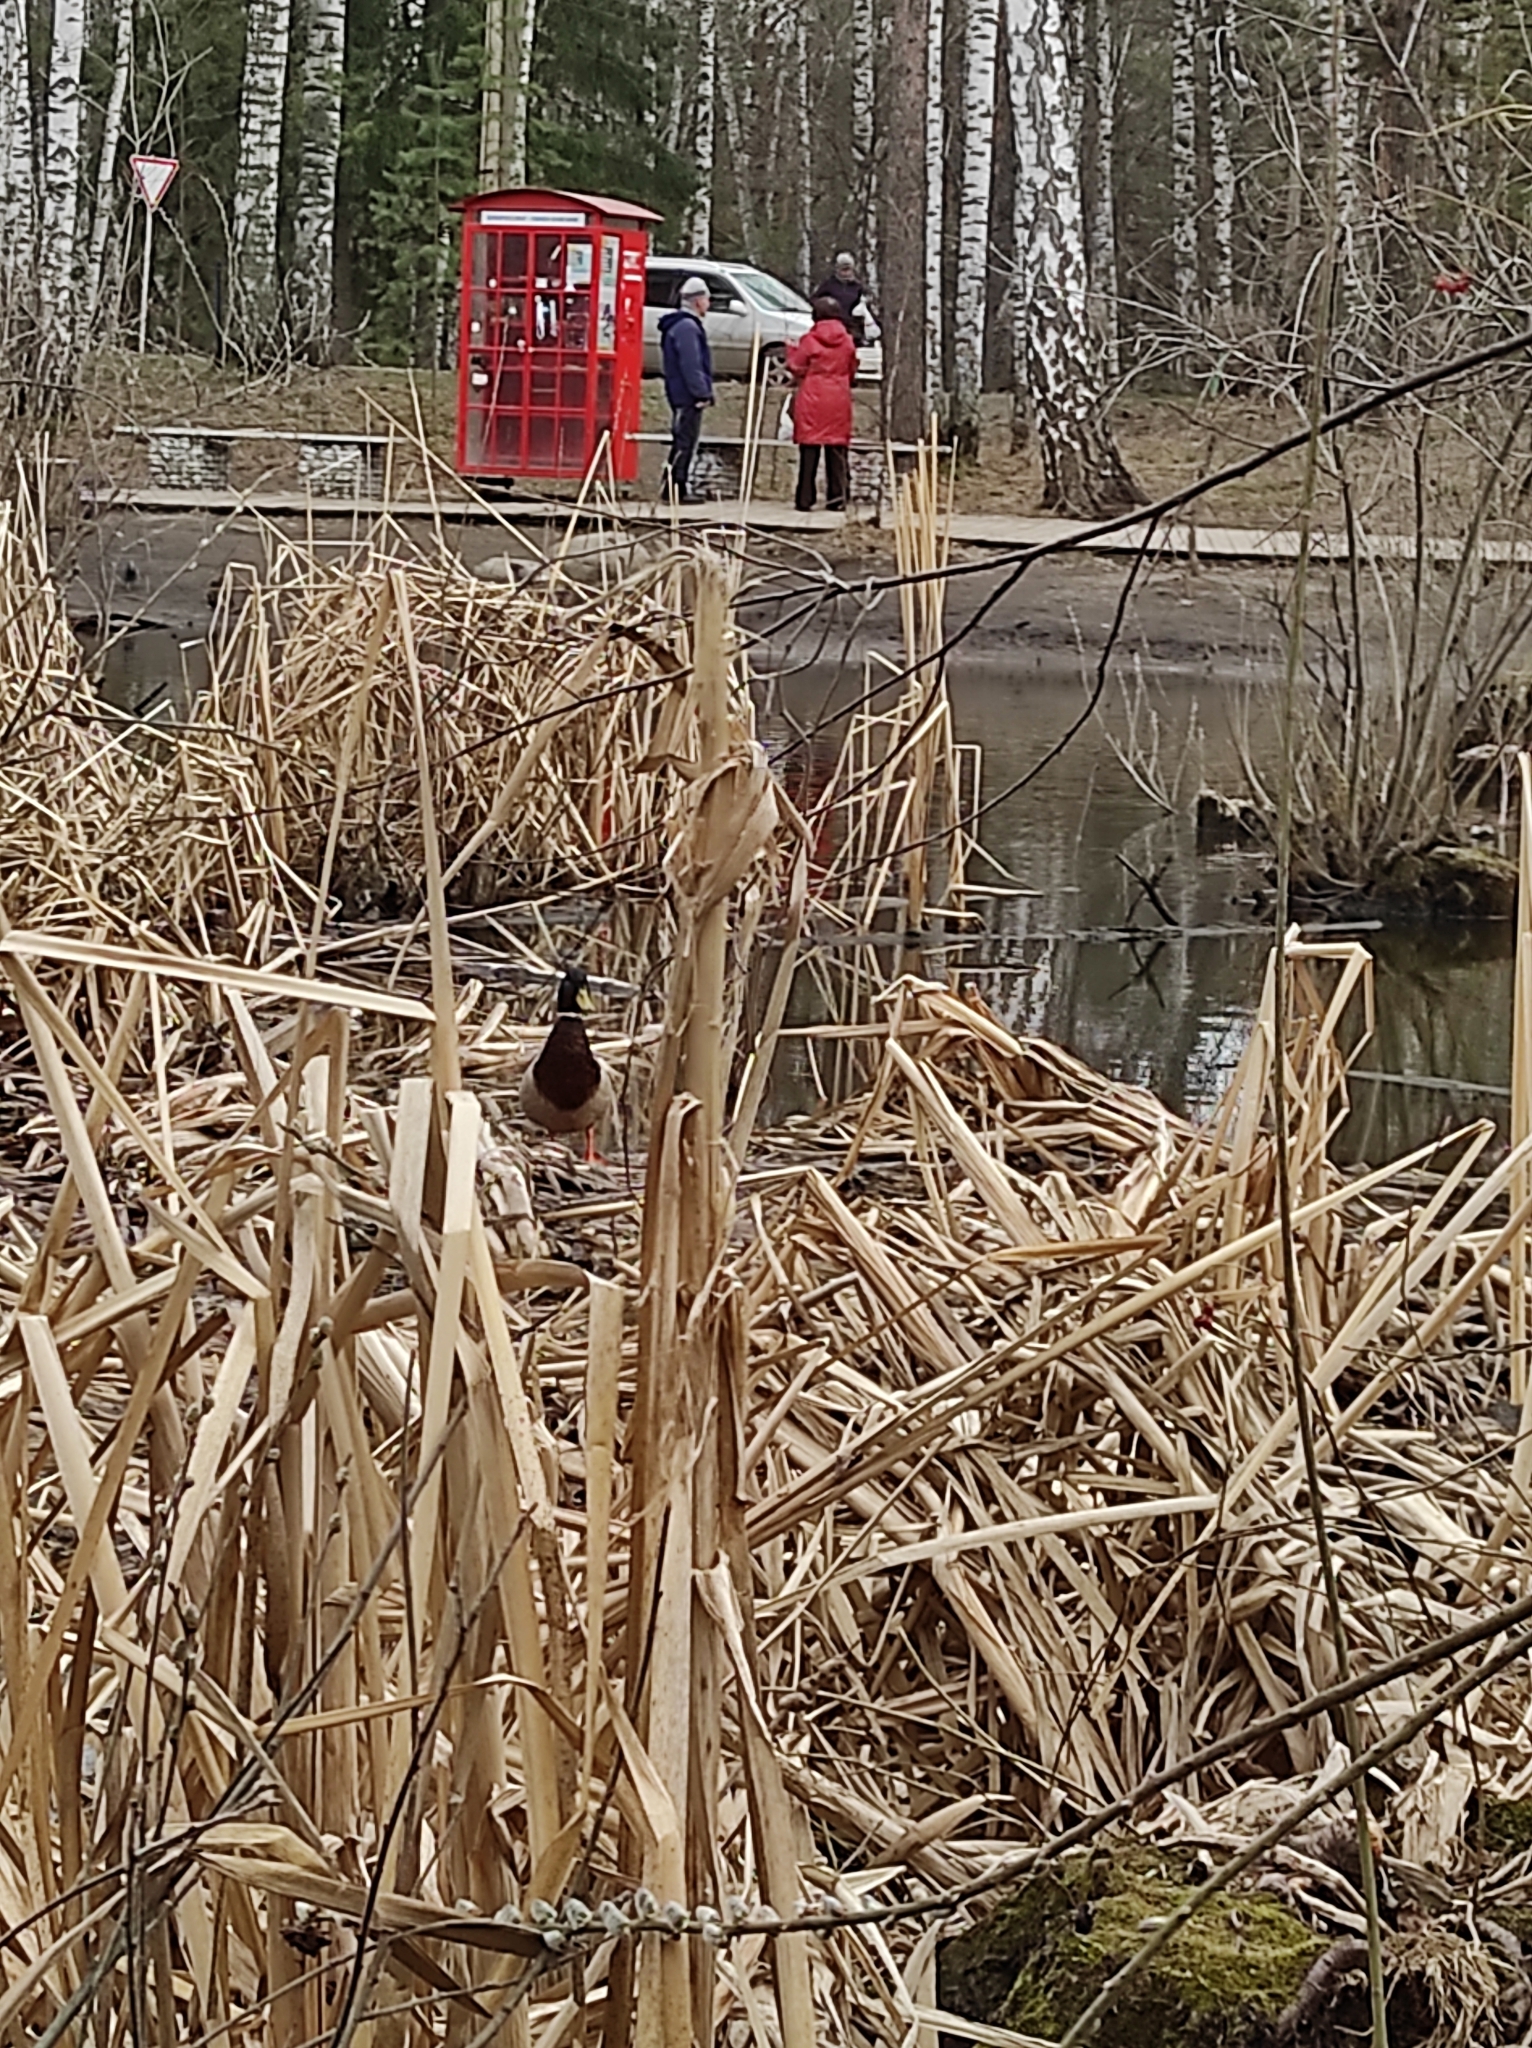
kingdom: Animalia
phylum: Chordata
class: Aves
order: Anseriformes
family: Anatidae
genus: Anas
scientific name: Anas platyrhynchos
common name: Mallard
